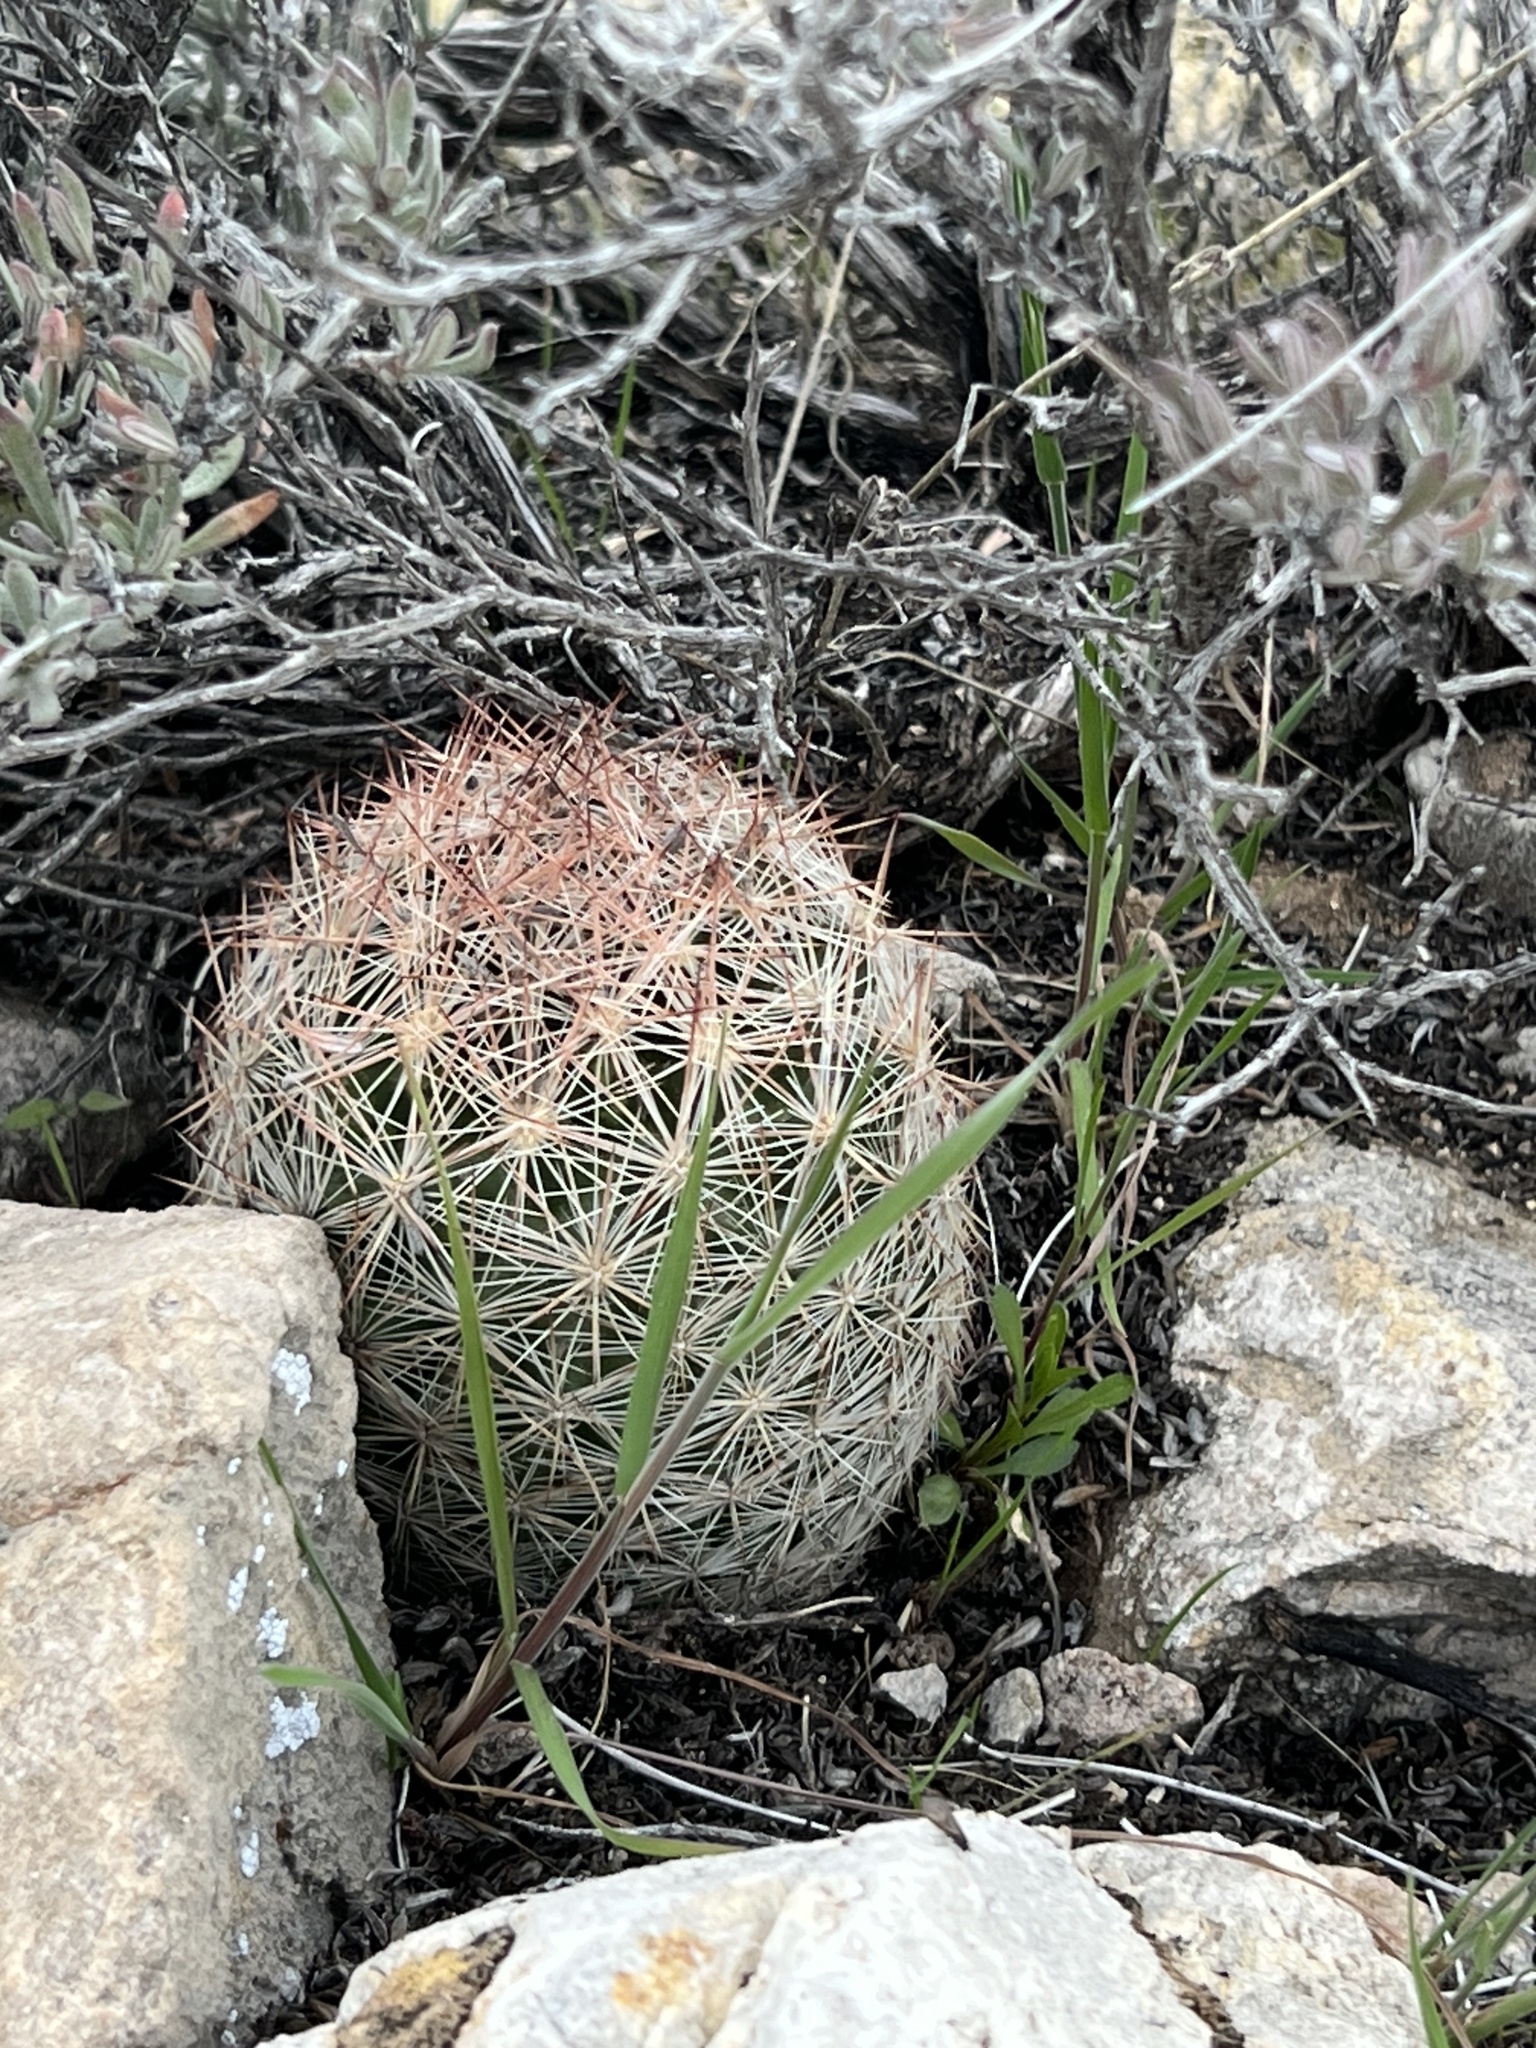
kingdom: Plantae
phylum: Tracheophyta
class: Magnoliopsida
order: Caryophyllales
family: Cactaceae
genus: Pelecyphora
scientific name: Pelecyphora dasyacantha
